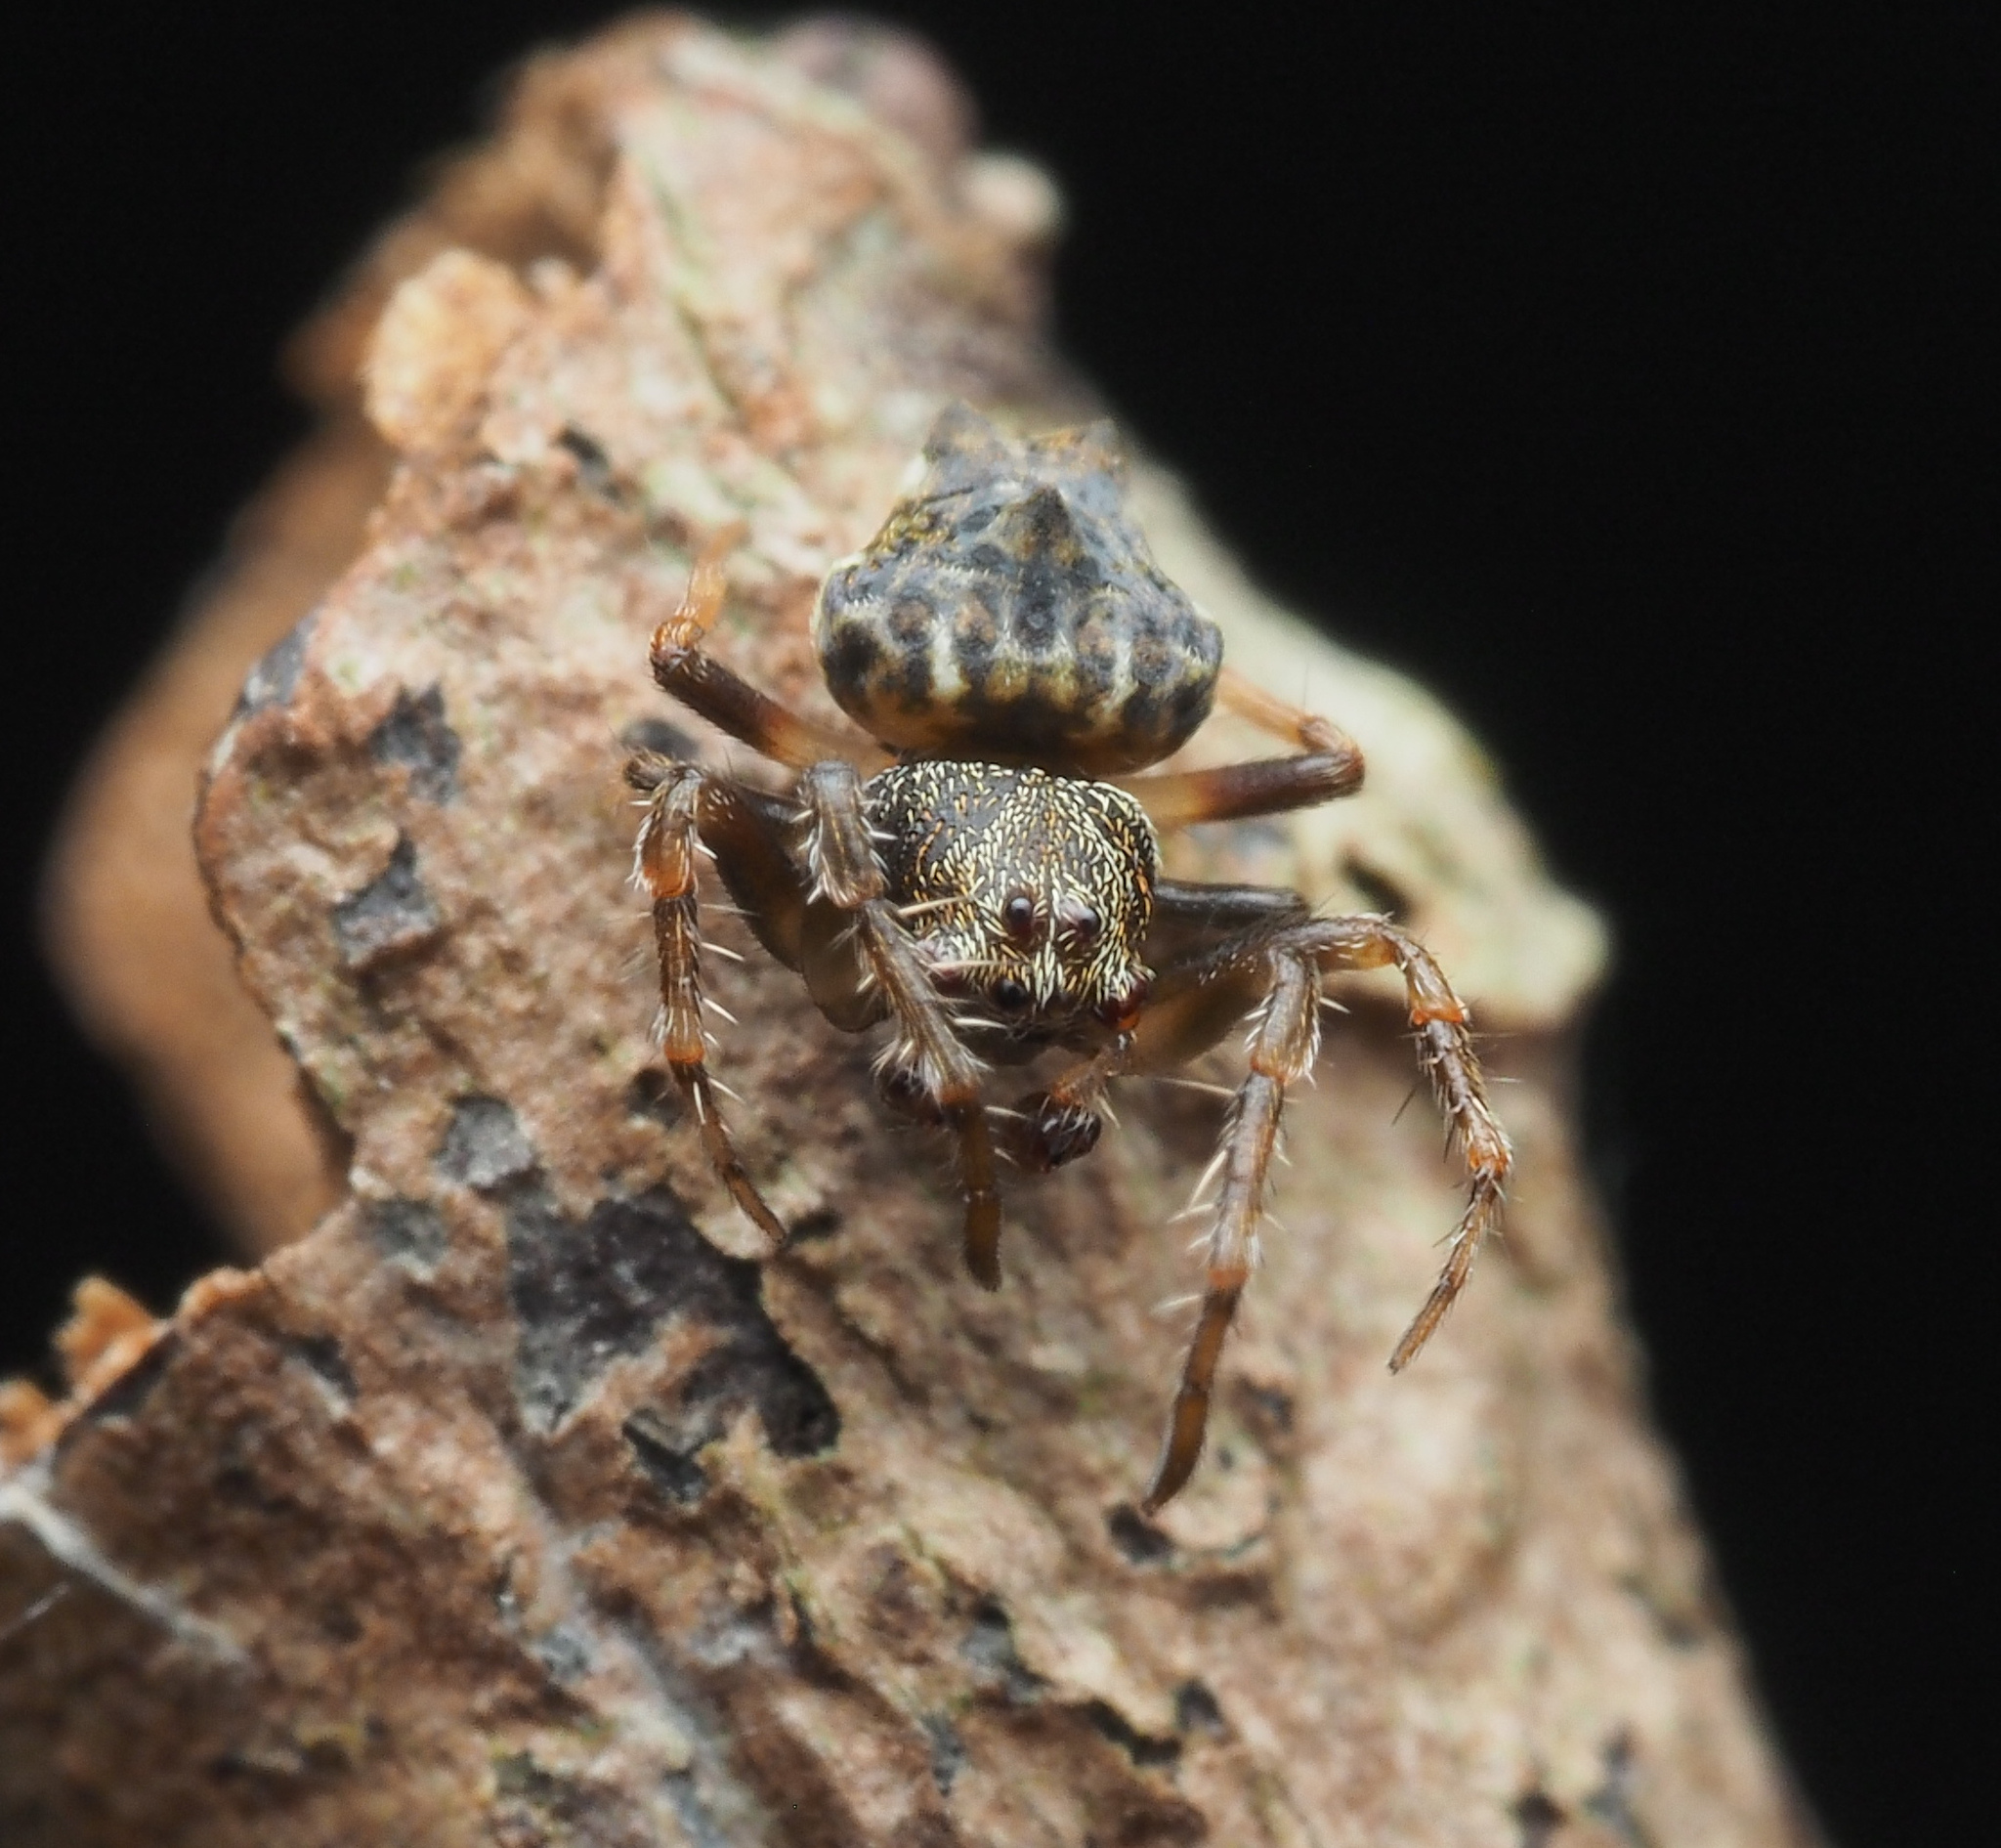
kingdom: Animalia
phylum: Arthropoda
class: Arachnida
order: Araneae
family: Arkyidae
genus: Arkys
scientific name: Arkys
